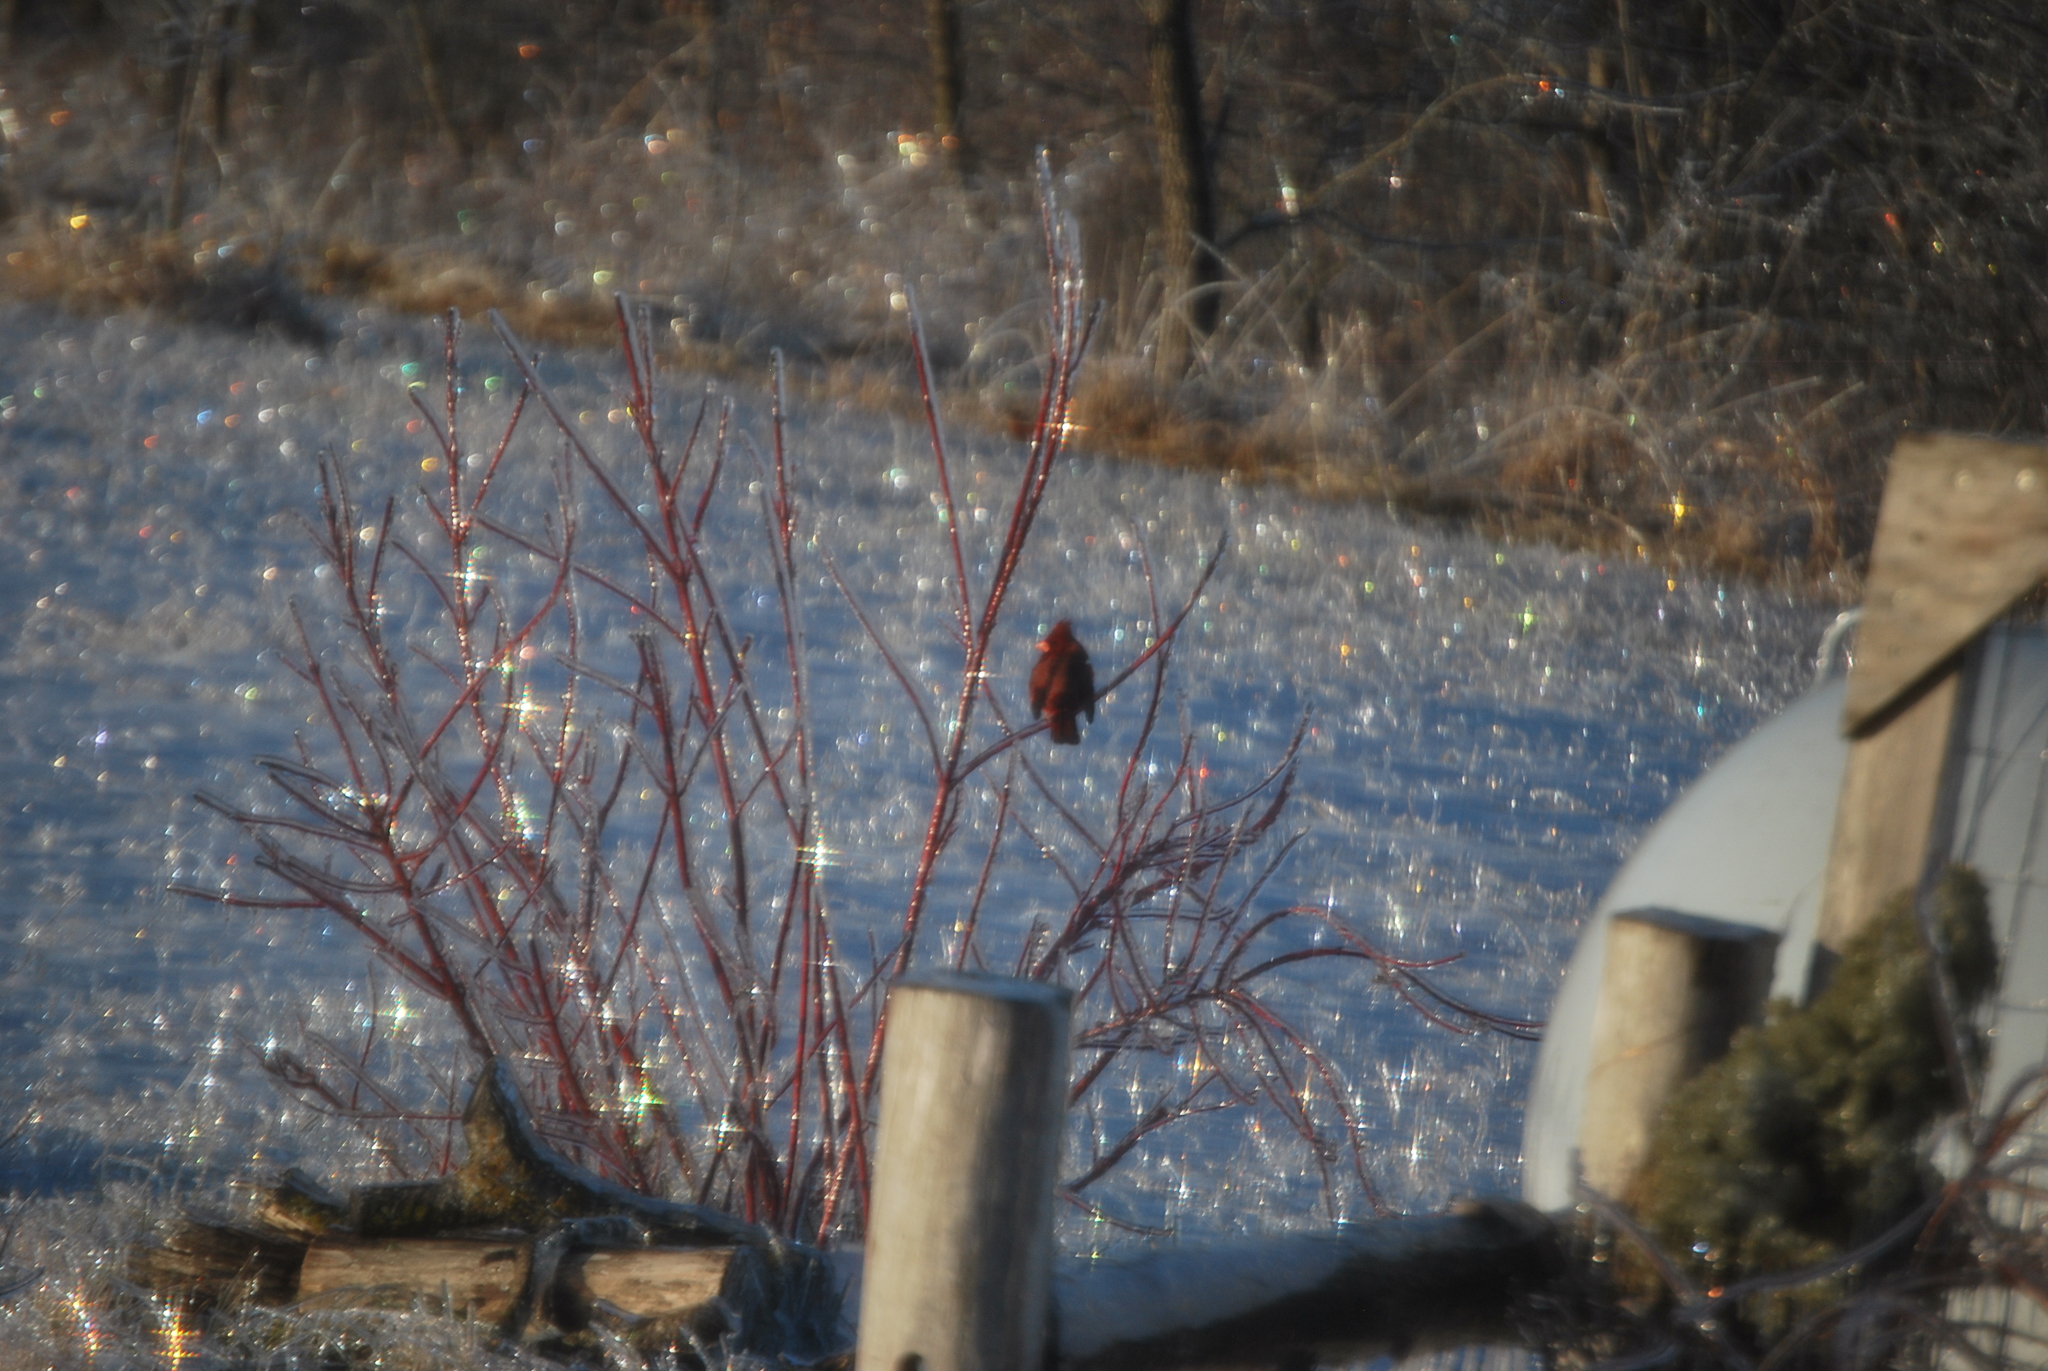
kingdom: Animalia
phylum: Chordata
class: Aves
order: Passeriformes
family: Cardinalidae
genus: Cardinalis
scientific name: Cardinalis cardinalis
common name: Northern cardinal
